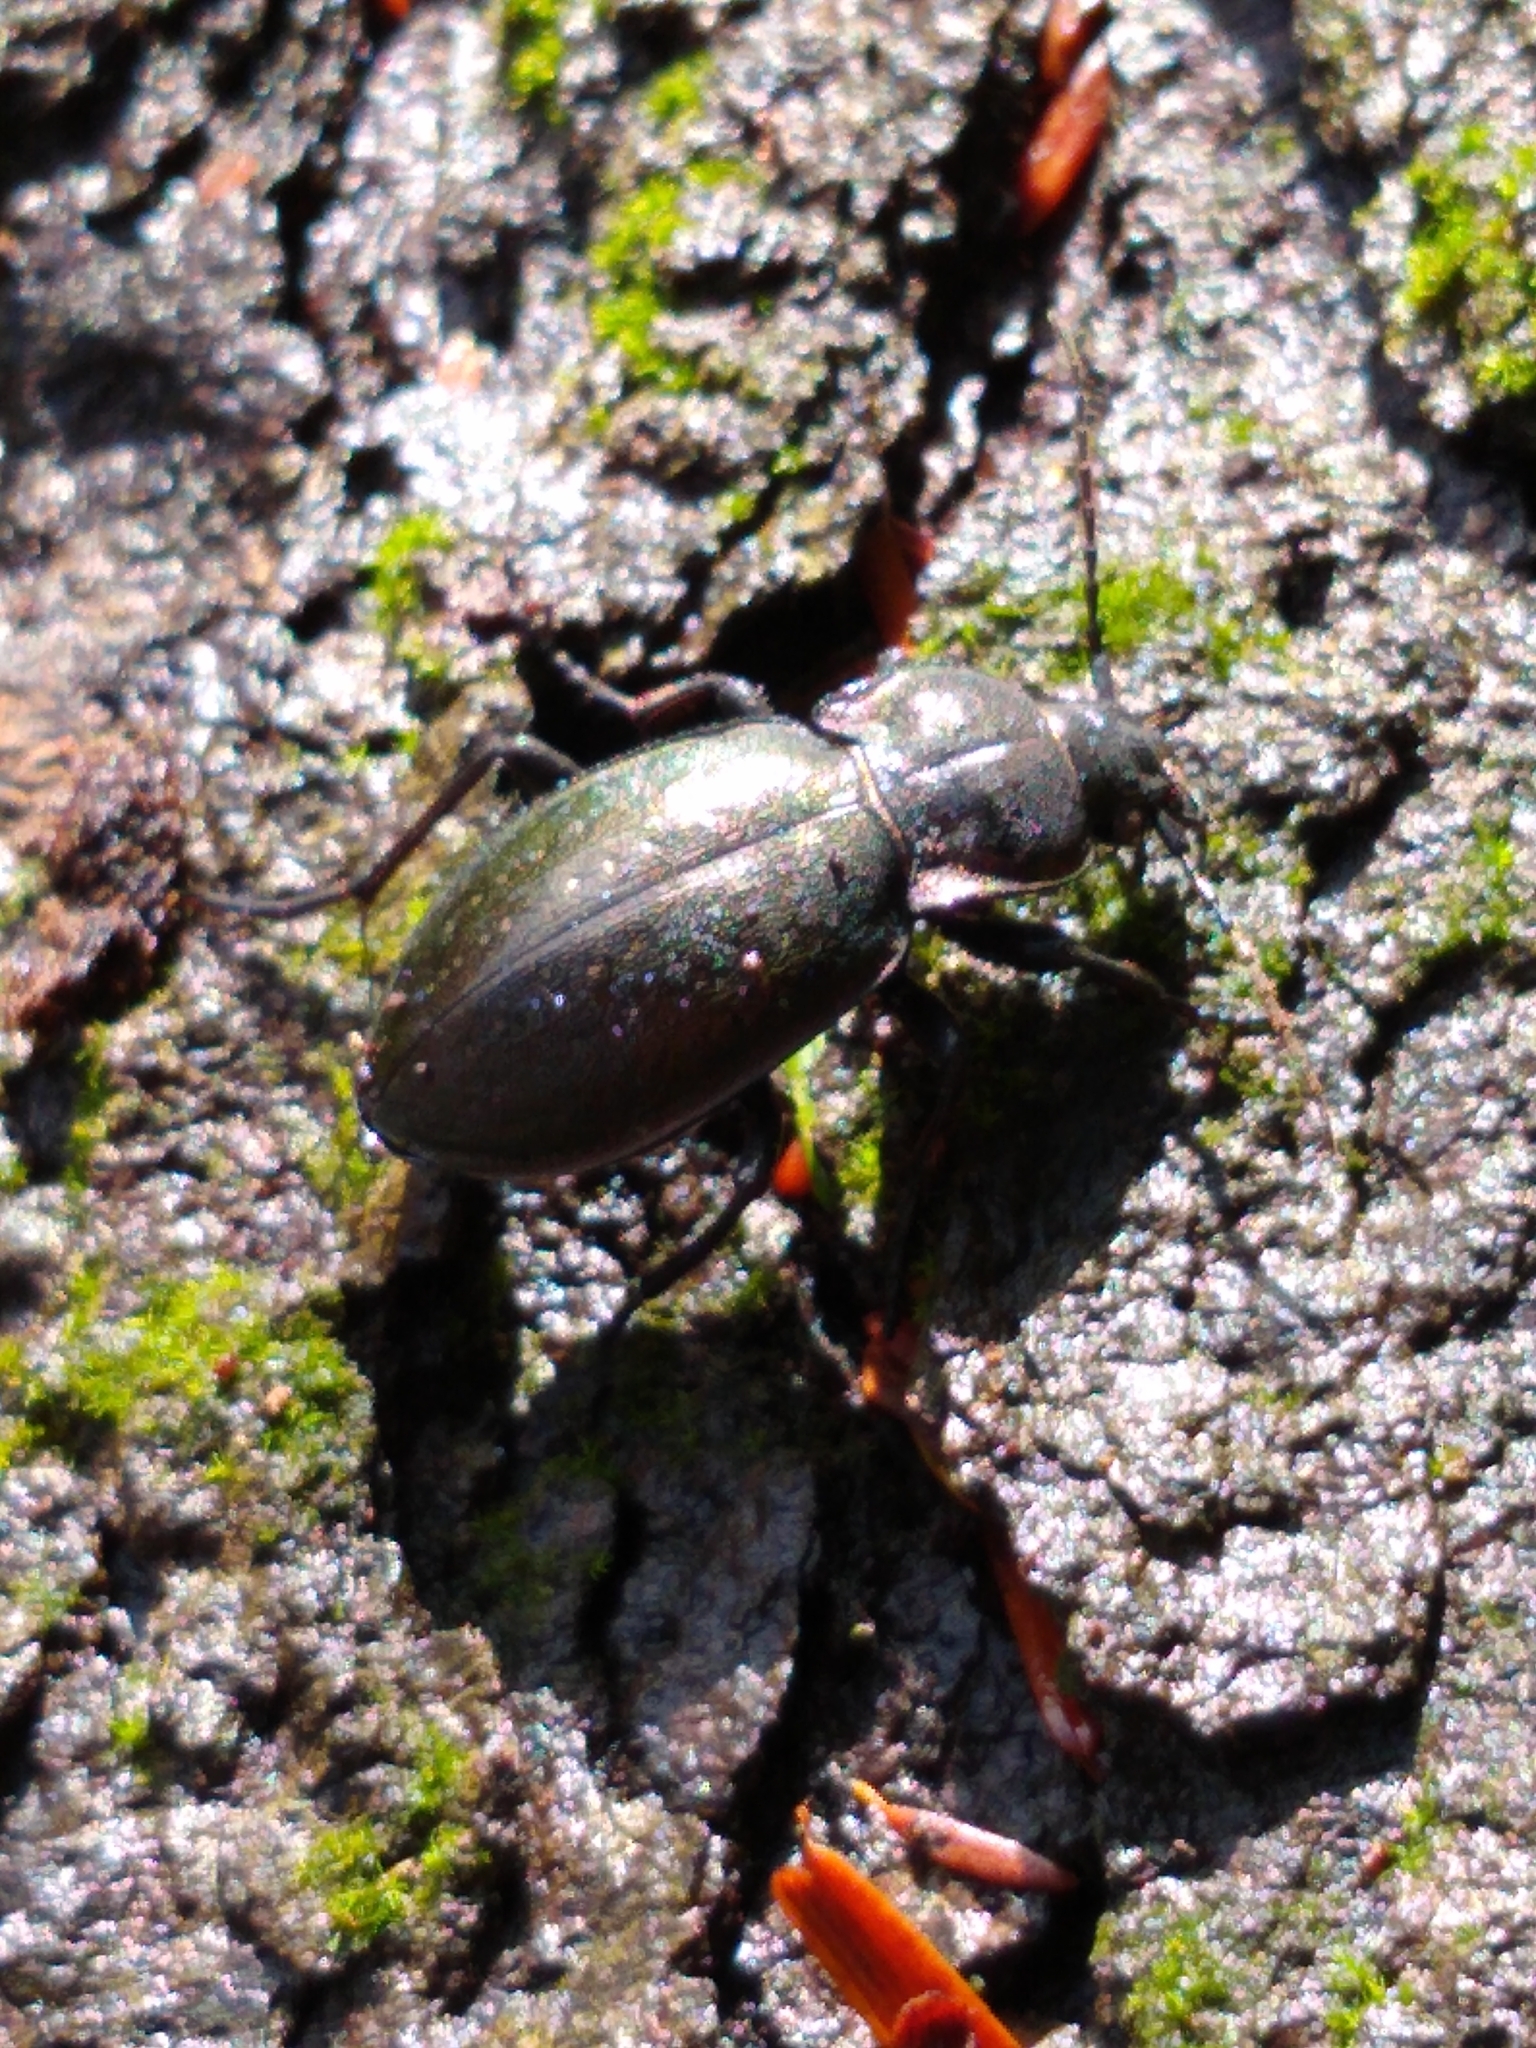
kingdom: Animalia
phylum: Arthropoda
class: Insecta
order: Coleoptera
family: Carabidae
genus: Carabus
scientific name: Carabus nemoralis
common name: European ground beetle
